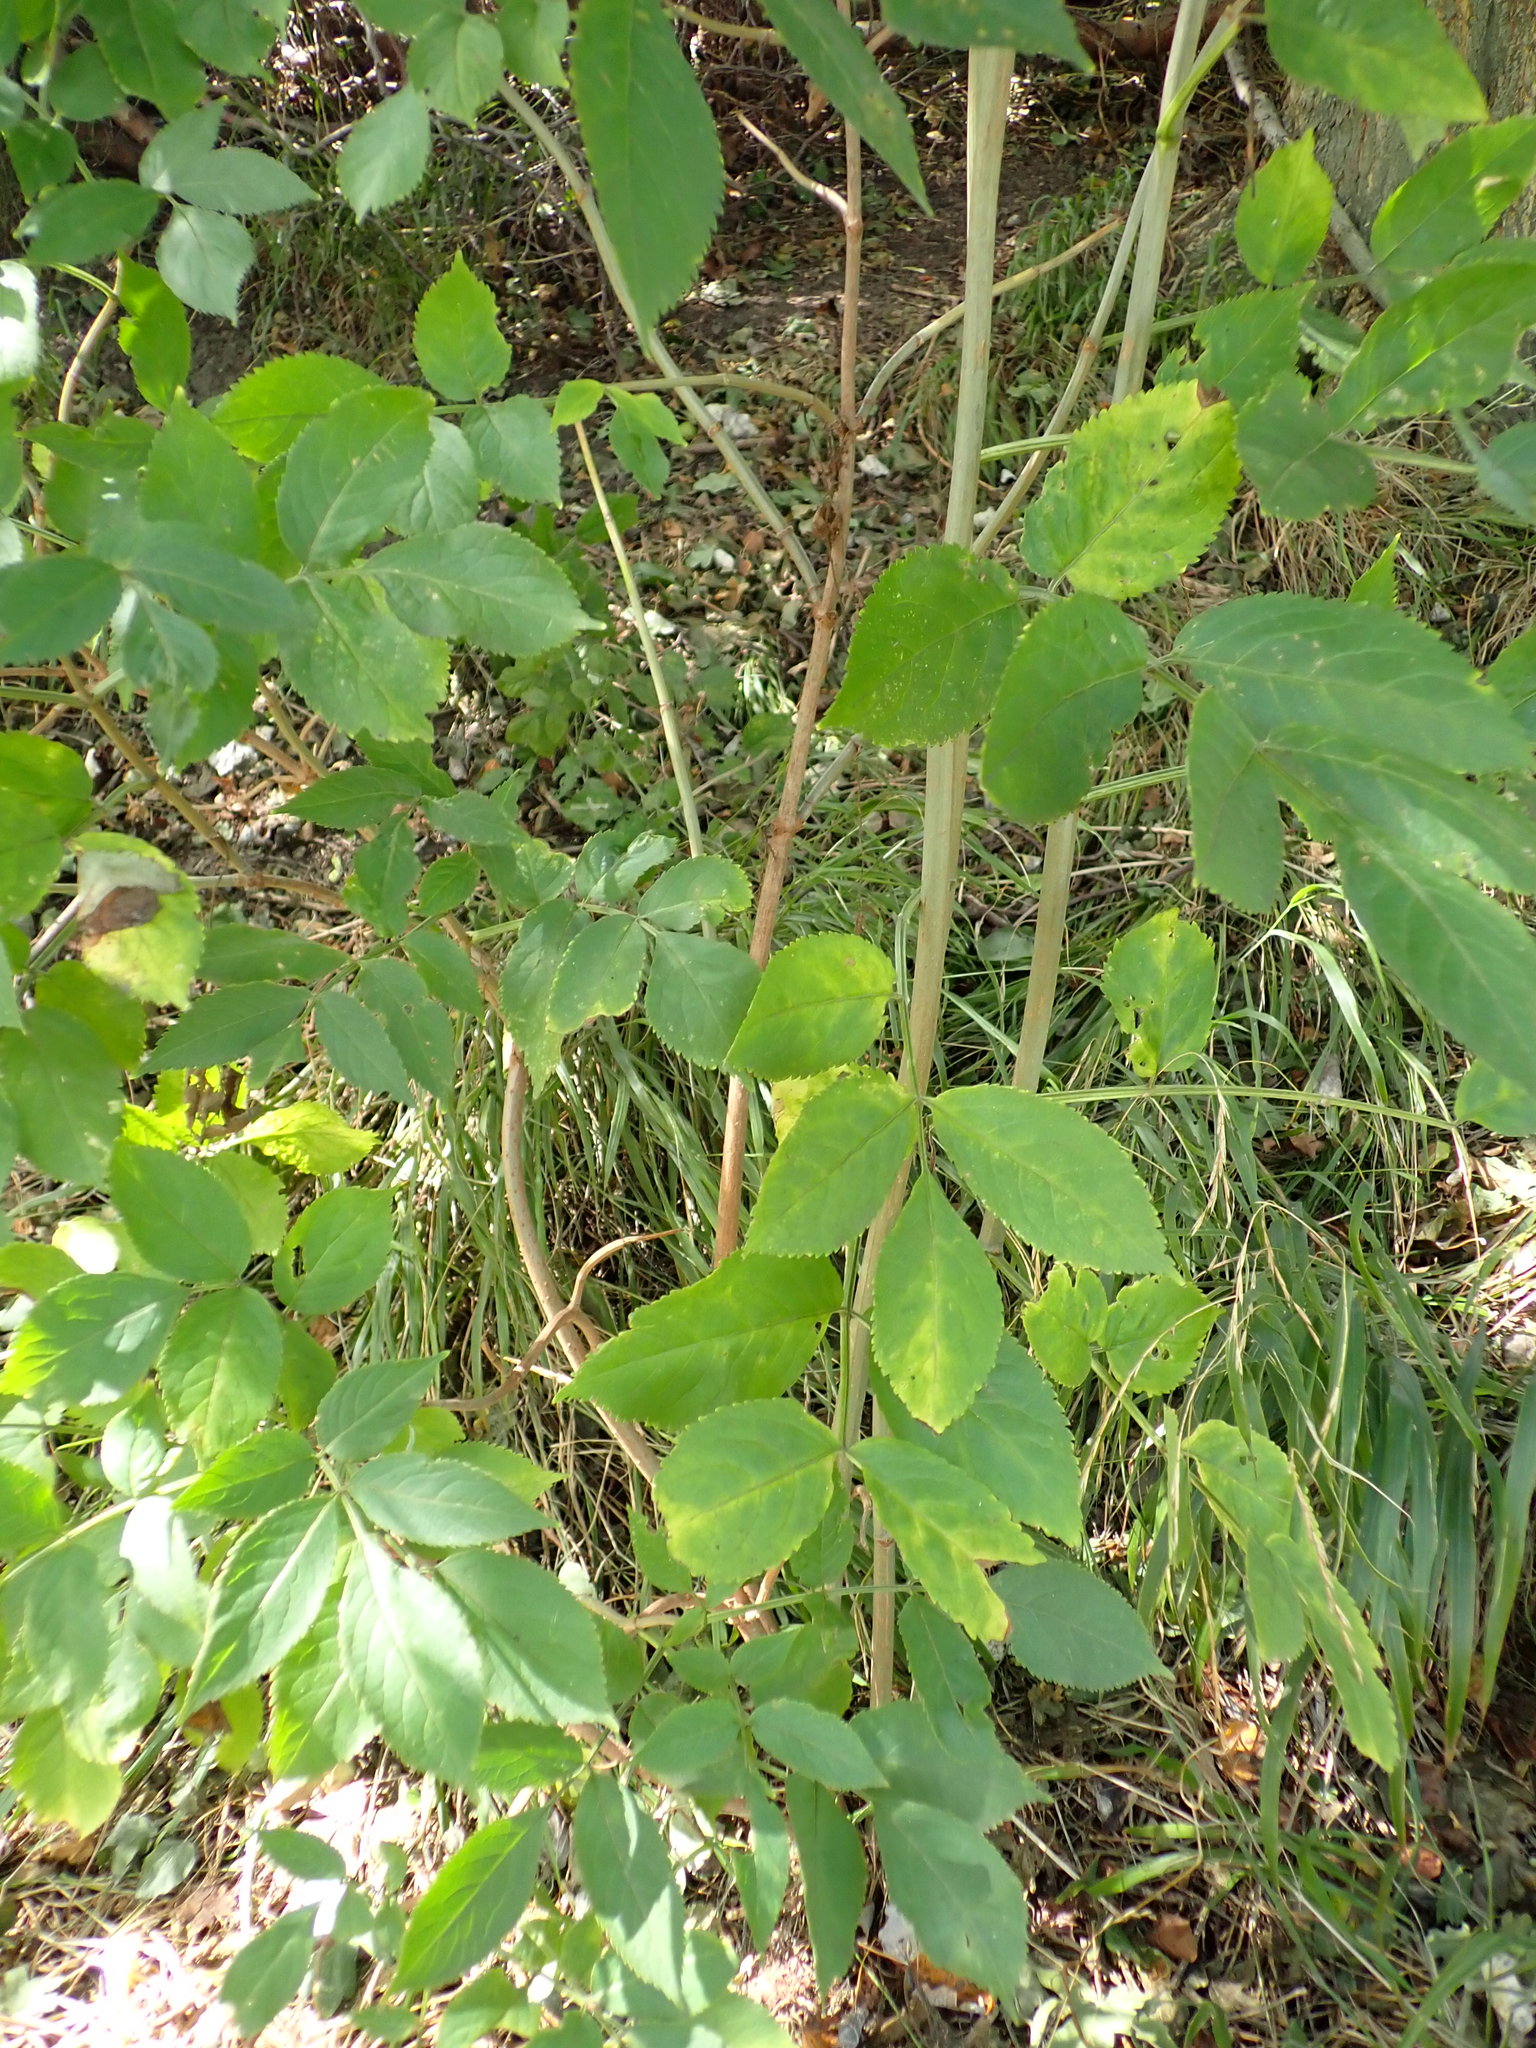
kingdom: Plantae
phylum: Tracheophyta
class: Magnoliopsida
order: Dipsacales
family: Viburnaceae
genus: Sambucus
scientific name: Sambucus nigra
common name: Elder
